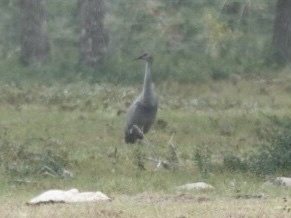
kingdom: Animalia
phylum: Chordata
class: Aves
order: Gruiformes
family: Gruidae
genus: Grus
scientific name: Grus canadensis
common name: Sandhill crane
